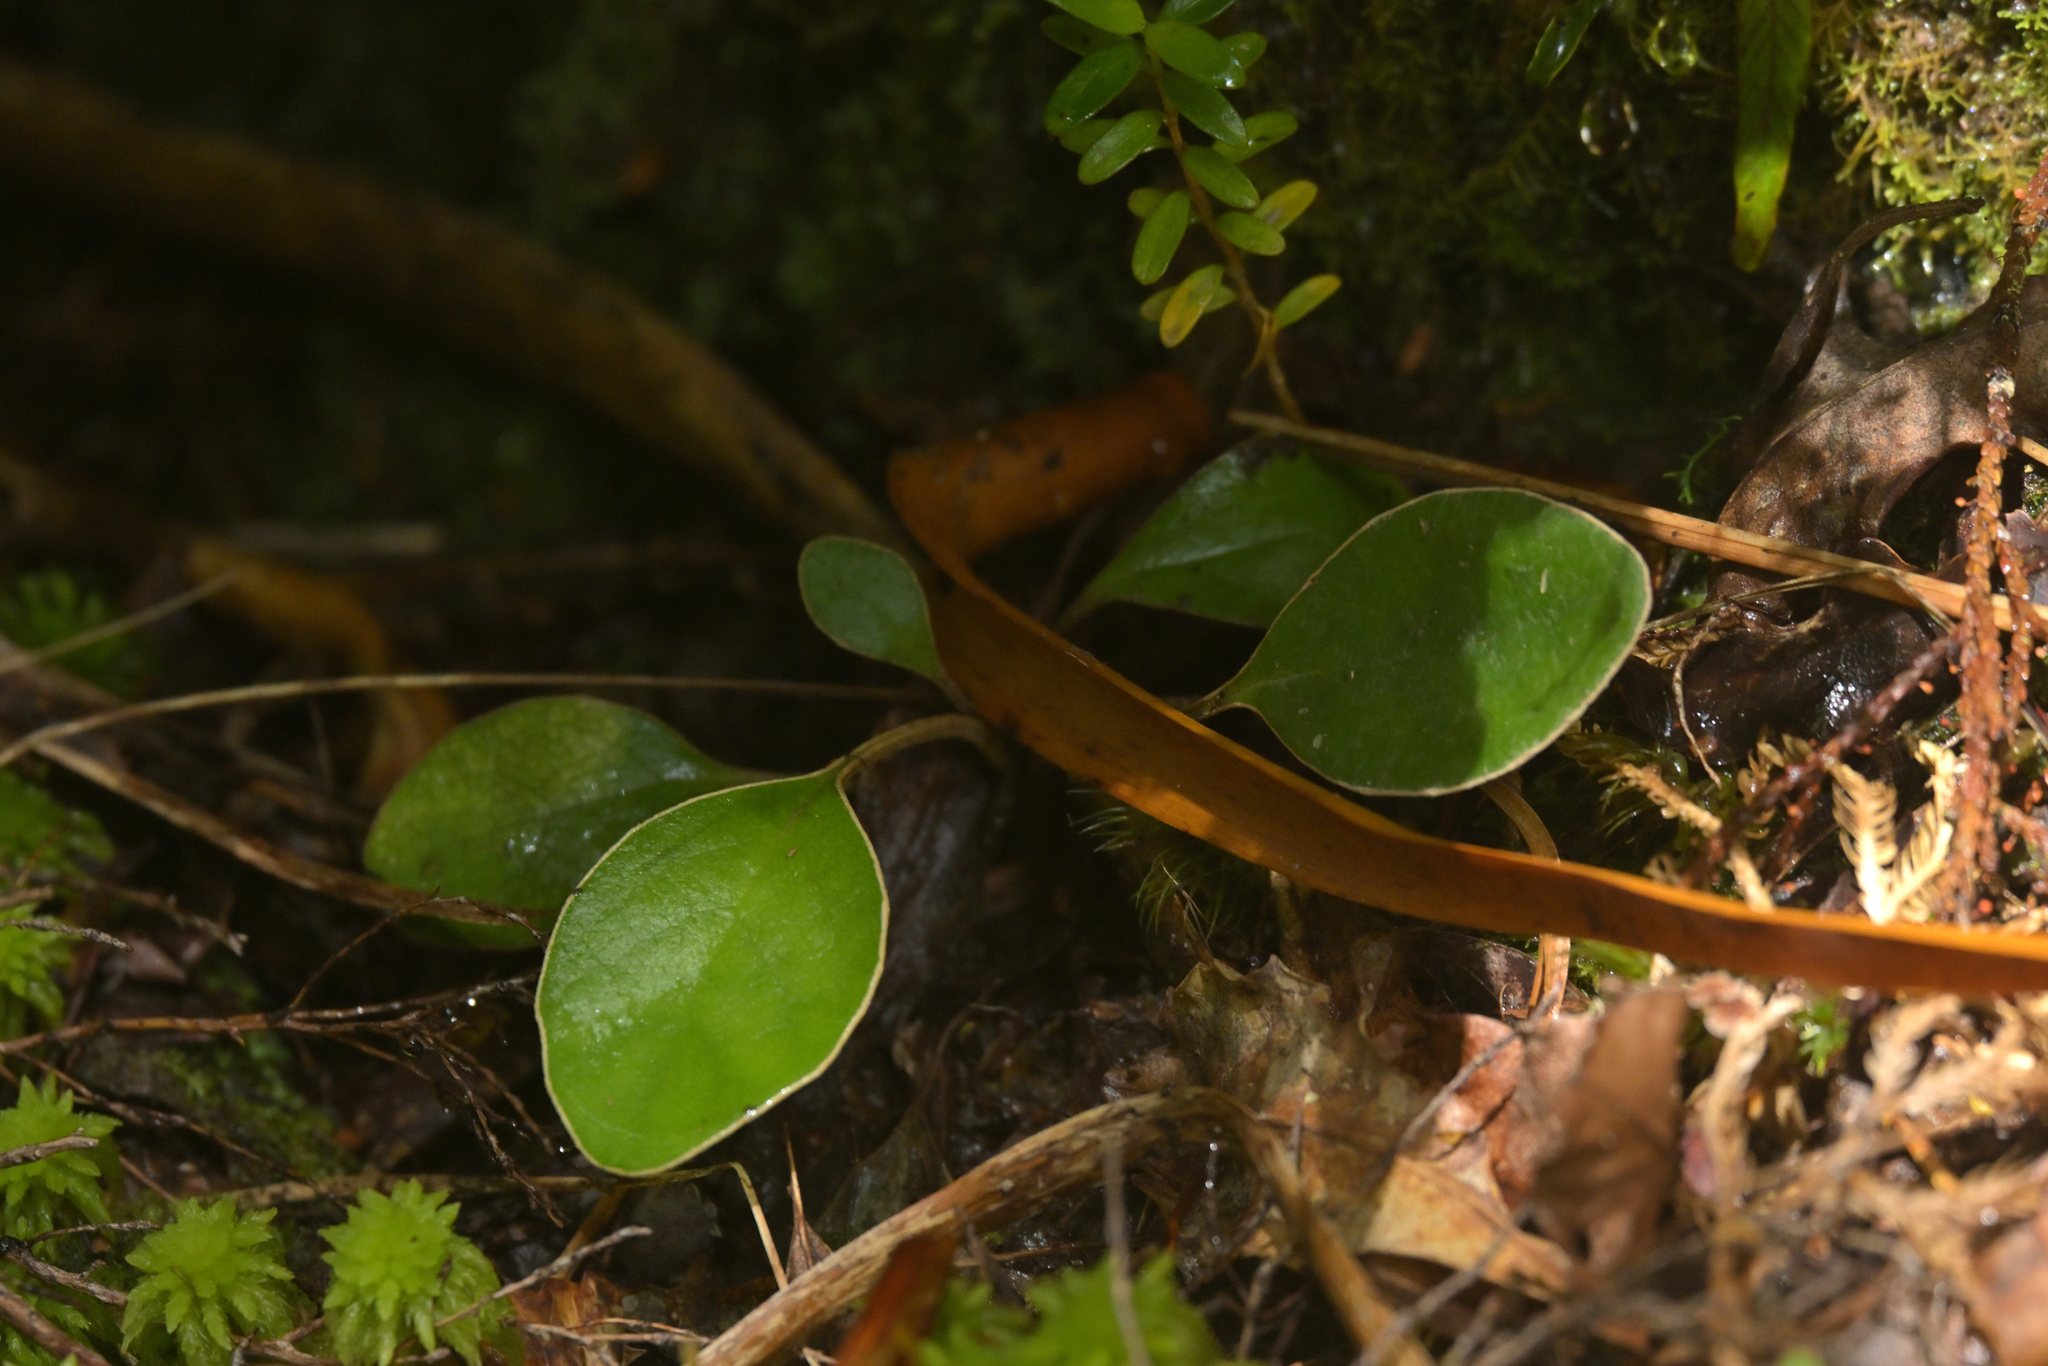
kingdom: Plantae
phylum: Tracheophyta
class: Magnoliopsida
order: Asterales
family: Asteraceae
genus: Brachyglottis
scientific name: Brachyglottis buchananii
